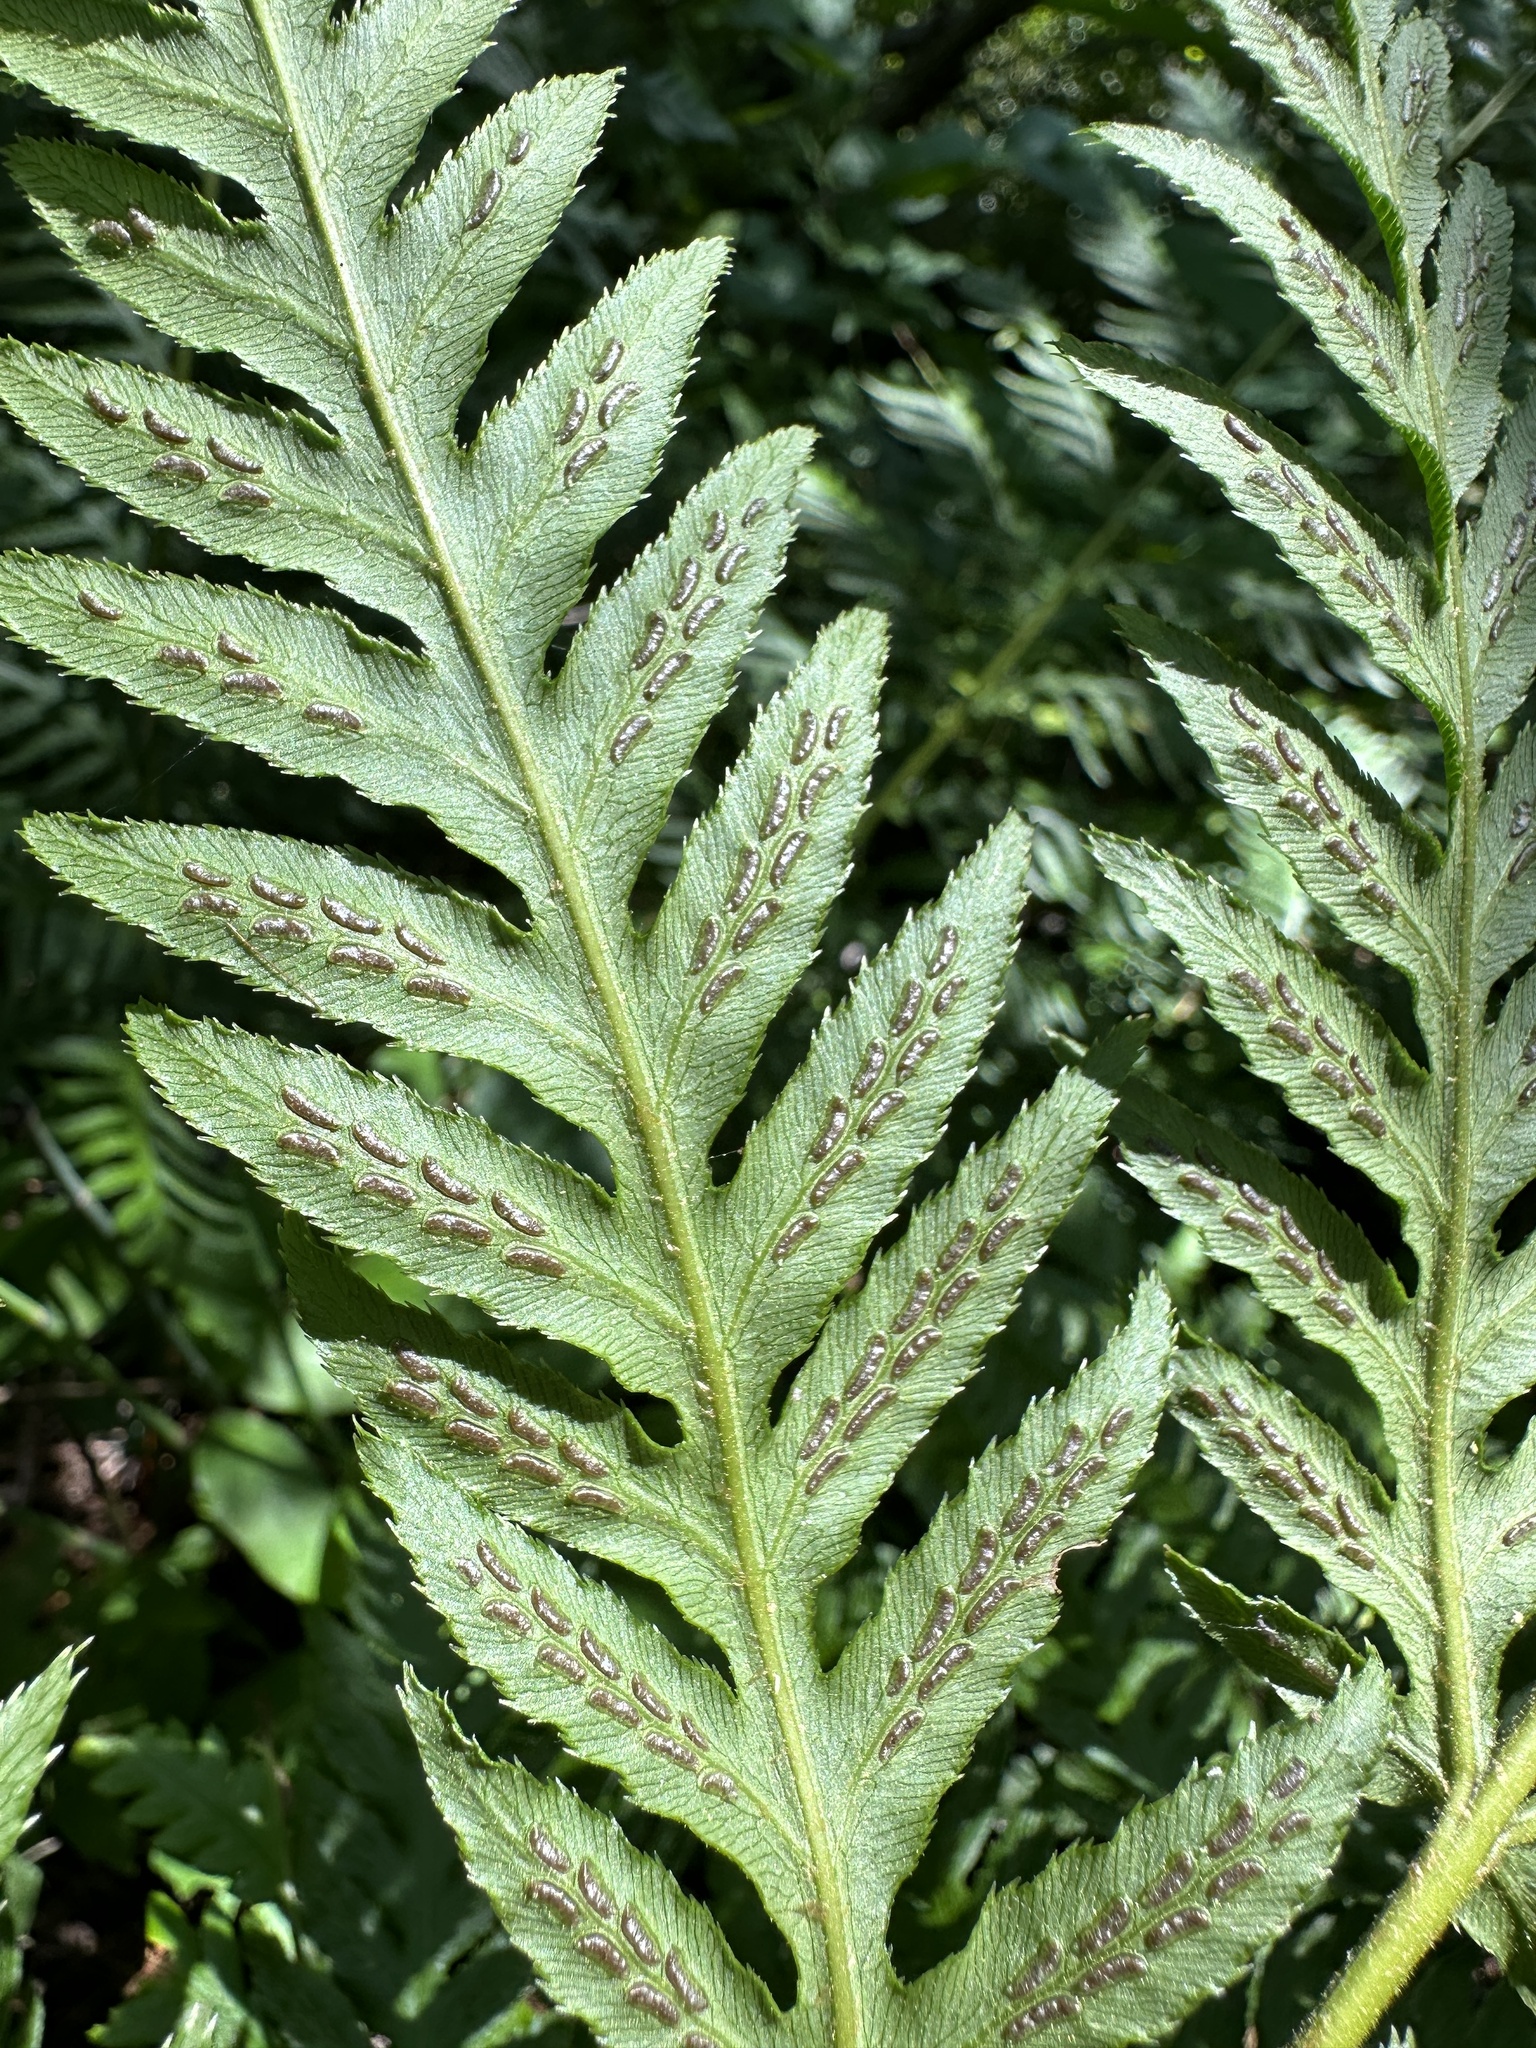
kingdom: Plantae
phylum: Tracheophyta
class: Polypodiopsida
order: Polypodiales
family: Blechnaceae
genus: Woodwardia
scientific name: Woodwardia fimbriata
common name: Giant chain fern
